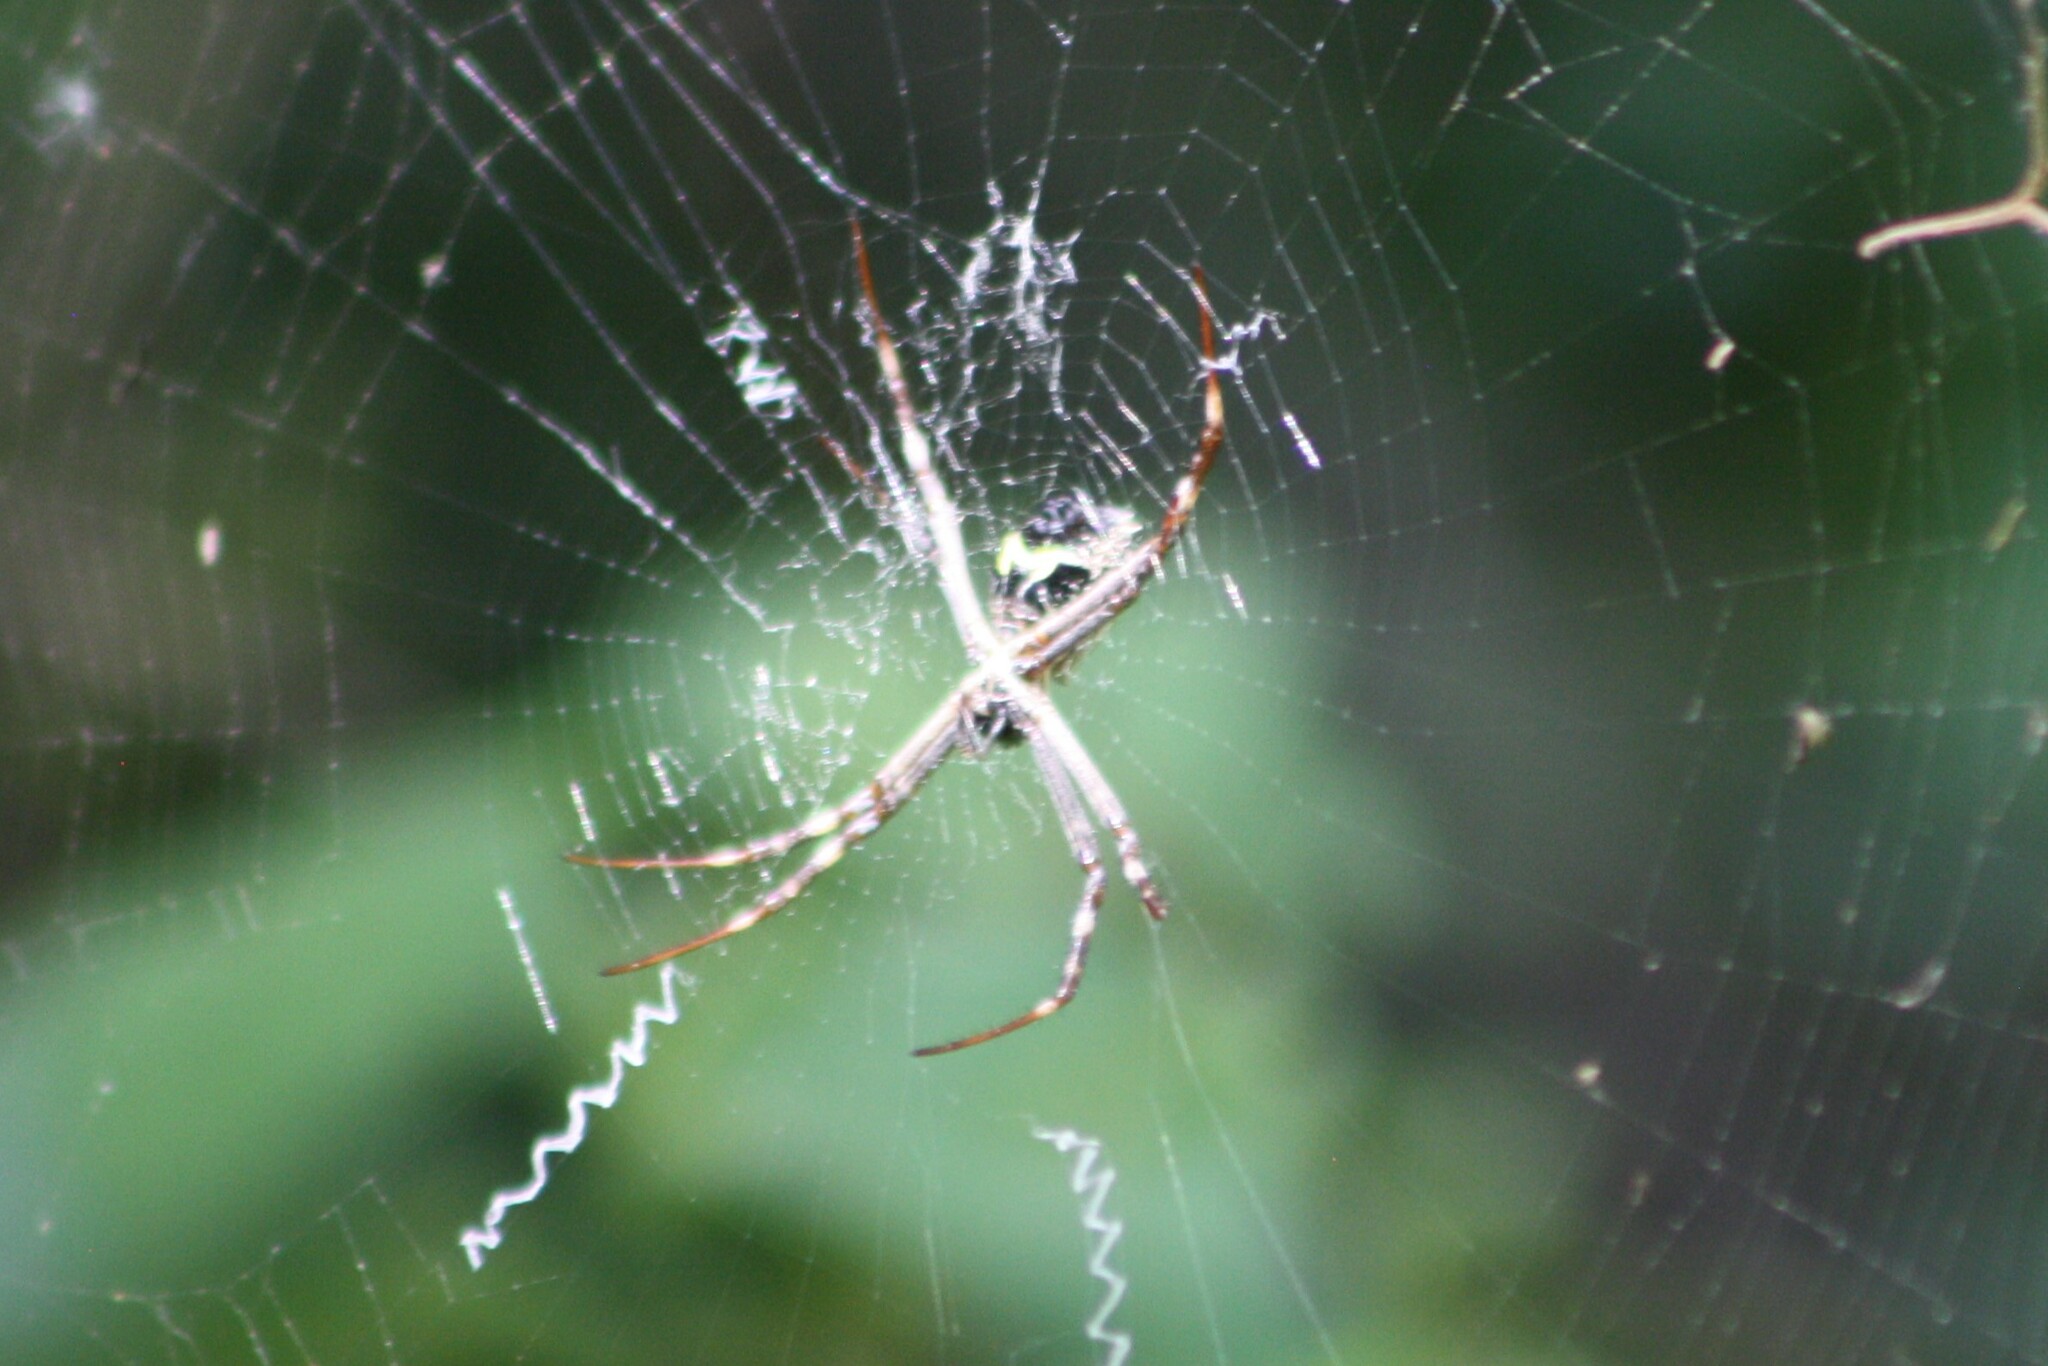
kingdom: Animalia
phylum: Arthropoda
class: Arachnida
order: Araneae
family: Araneidae
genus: Argiope
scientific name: Argiope blanda
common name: Orb weavers
